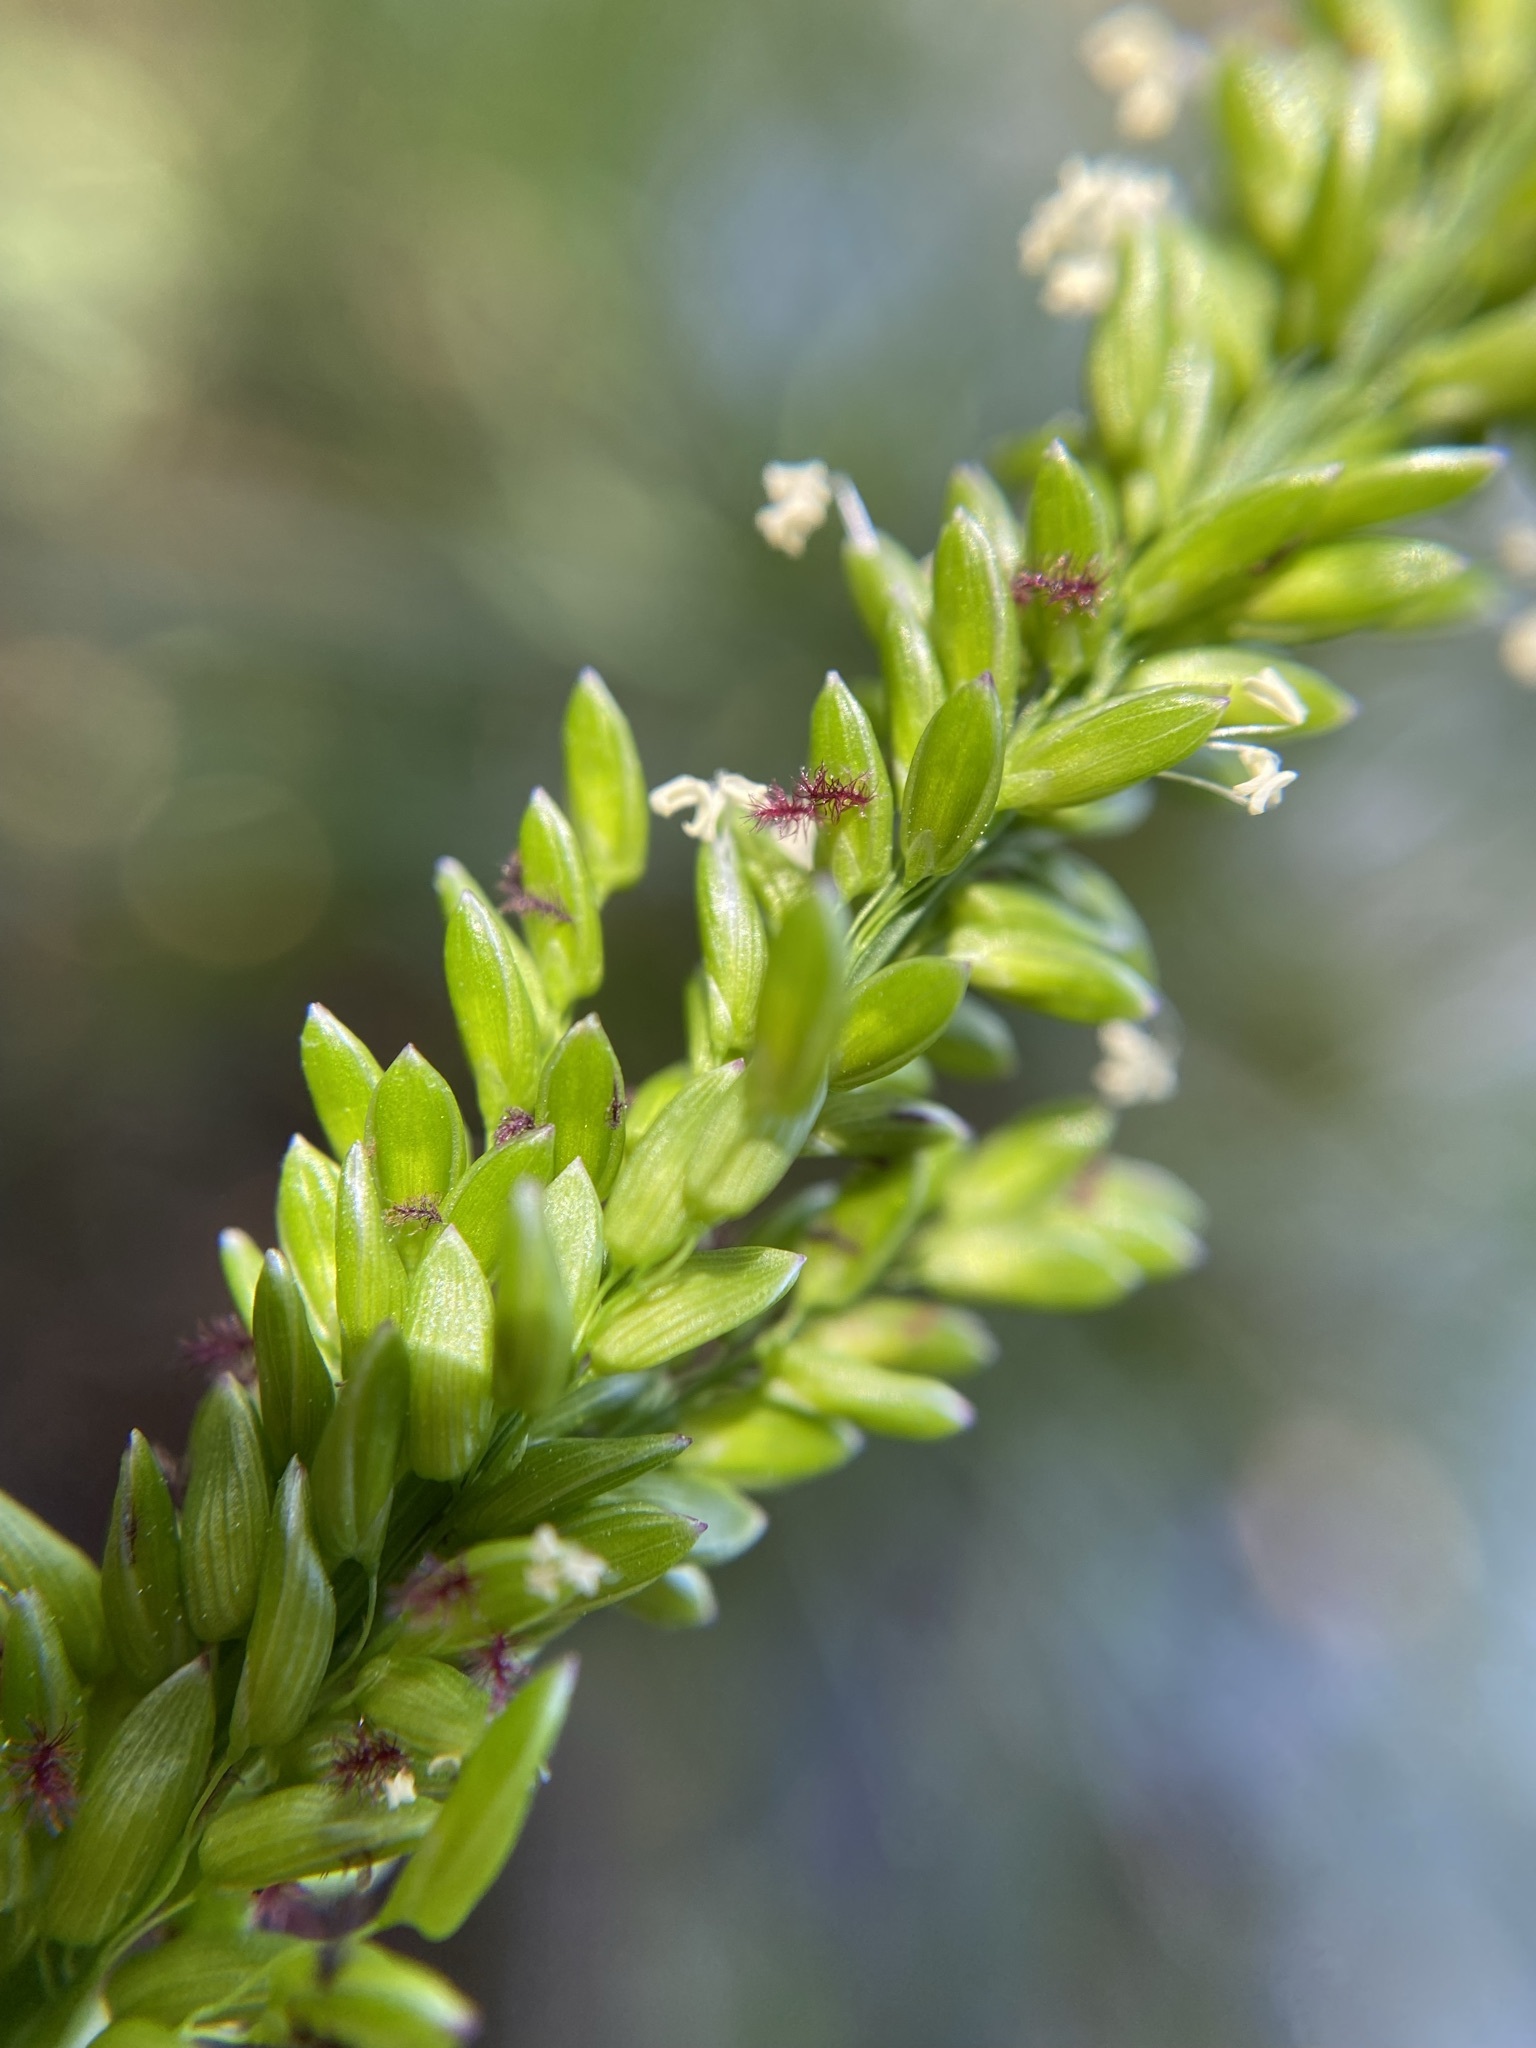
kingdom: Plantae
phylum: Tracheophyta
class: Liliopsida
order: Poales
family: Poaceae
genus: Sacciolepis
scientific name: Sacciolepis striata
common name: American cupscale
